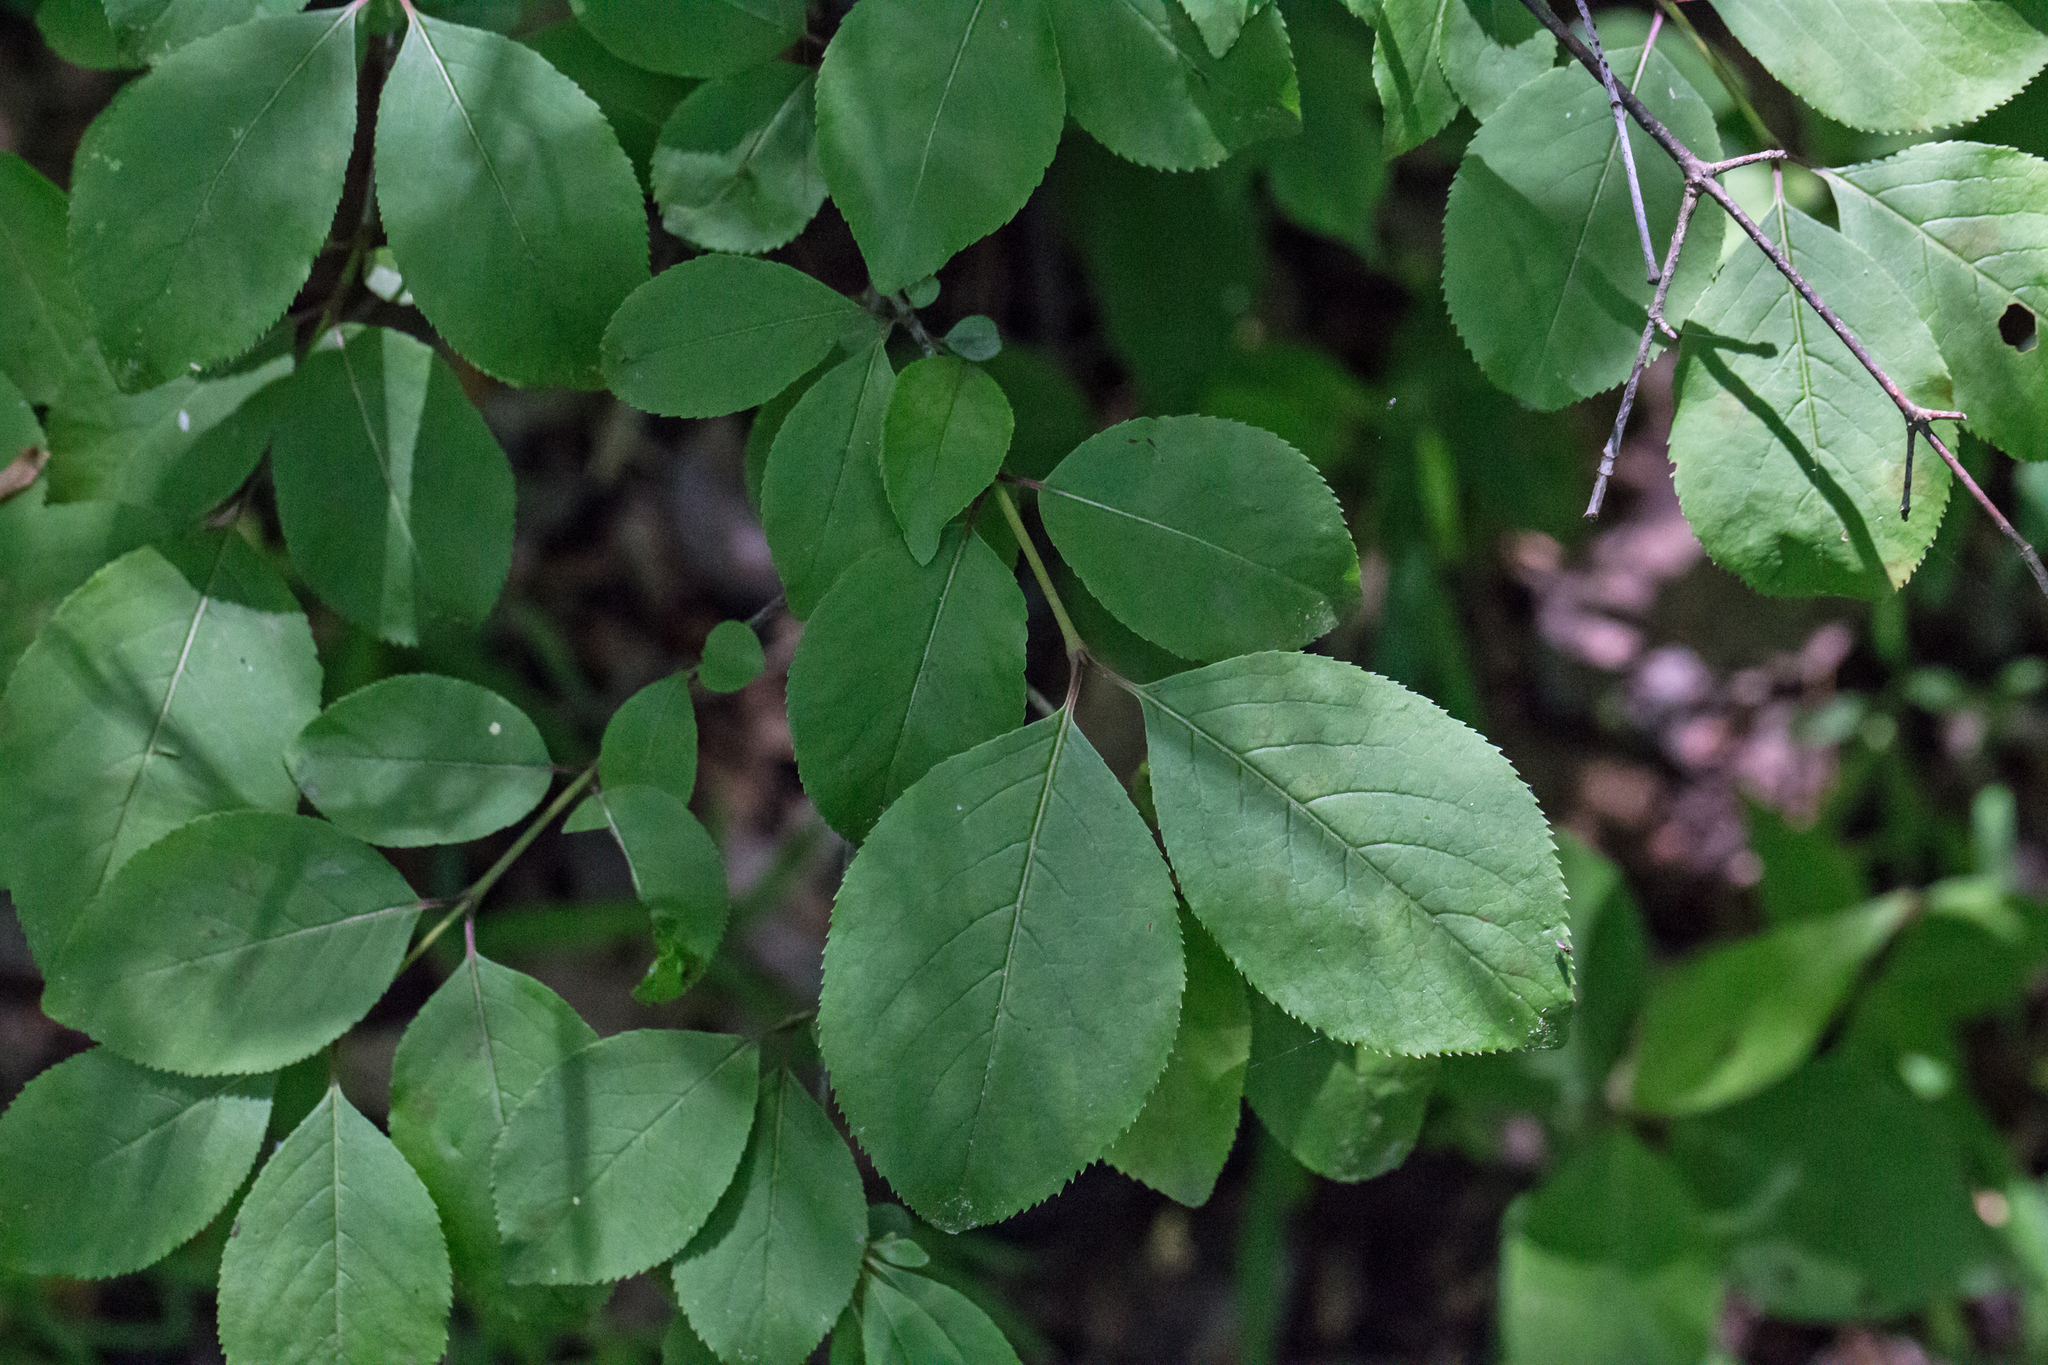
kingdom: Plantae
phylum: Tracheophyta
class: Magnoliopsida
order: Dipsacales
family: Viburnaceae
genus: Viburnum
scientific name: Viburnum prunifolium
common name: Black haw
